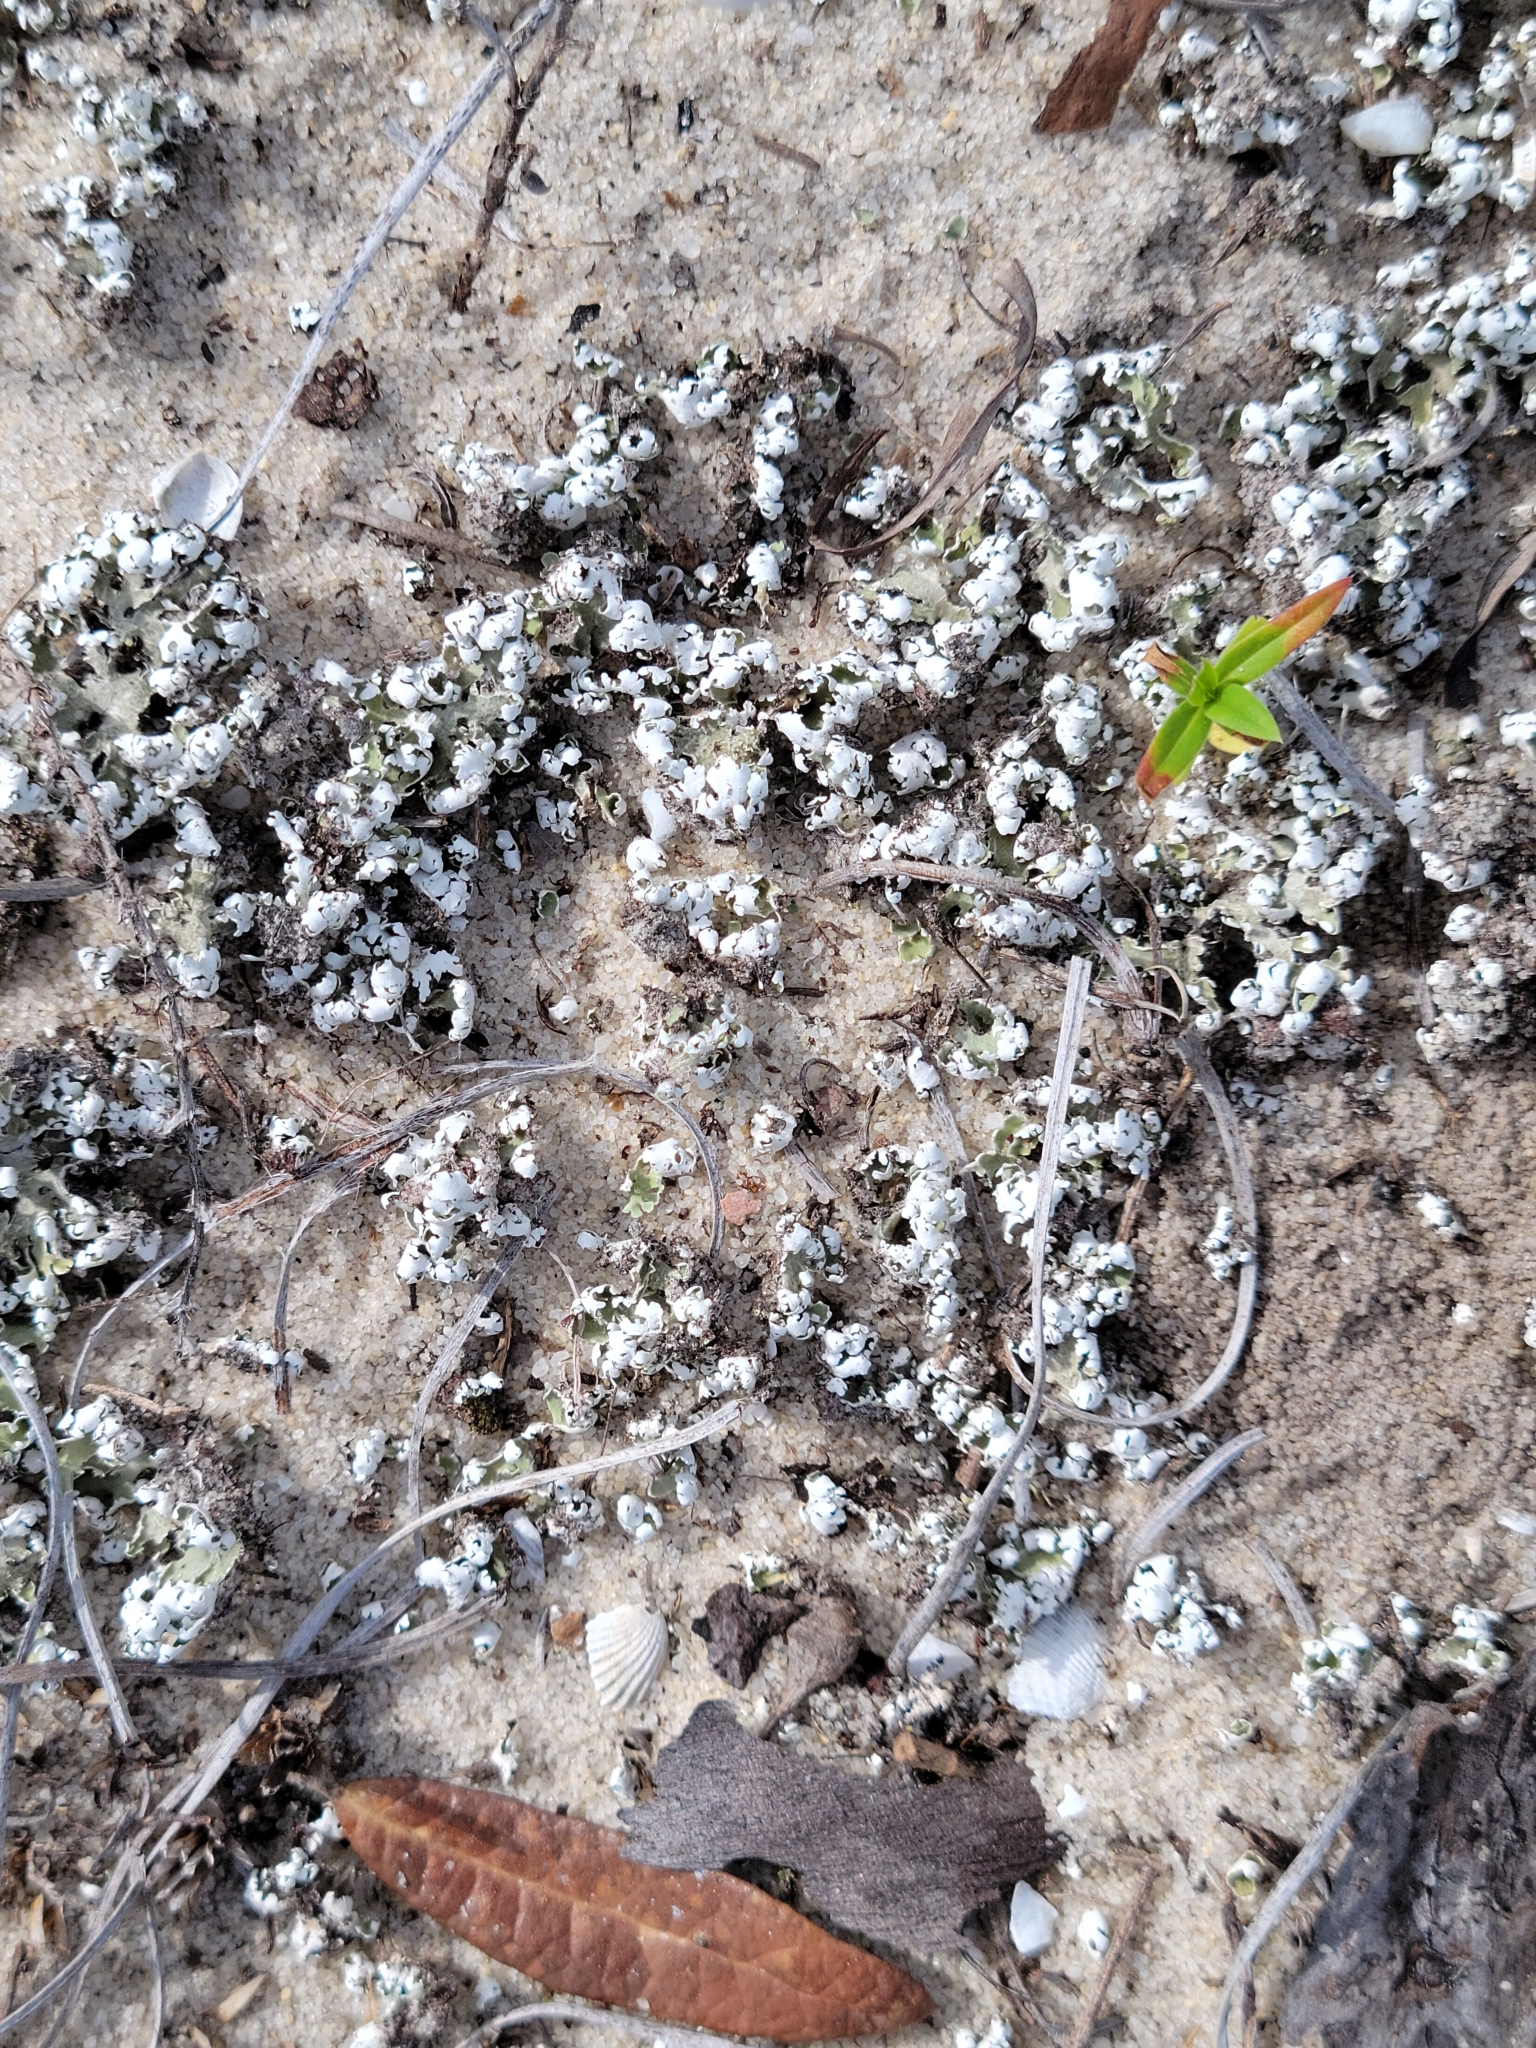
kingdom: Fungi
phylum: Ascomycota
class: Lecanoromycetes
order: Lecanorales
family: Cladoniaceae
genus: Cladonia
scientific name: Cladonia prostrata
